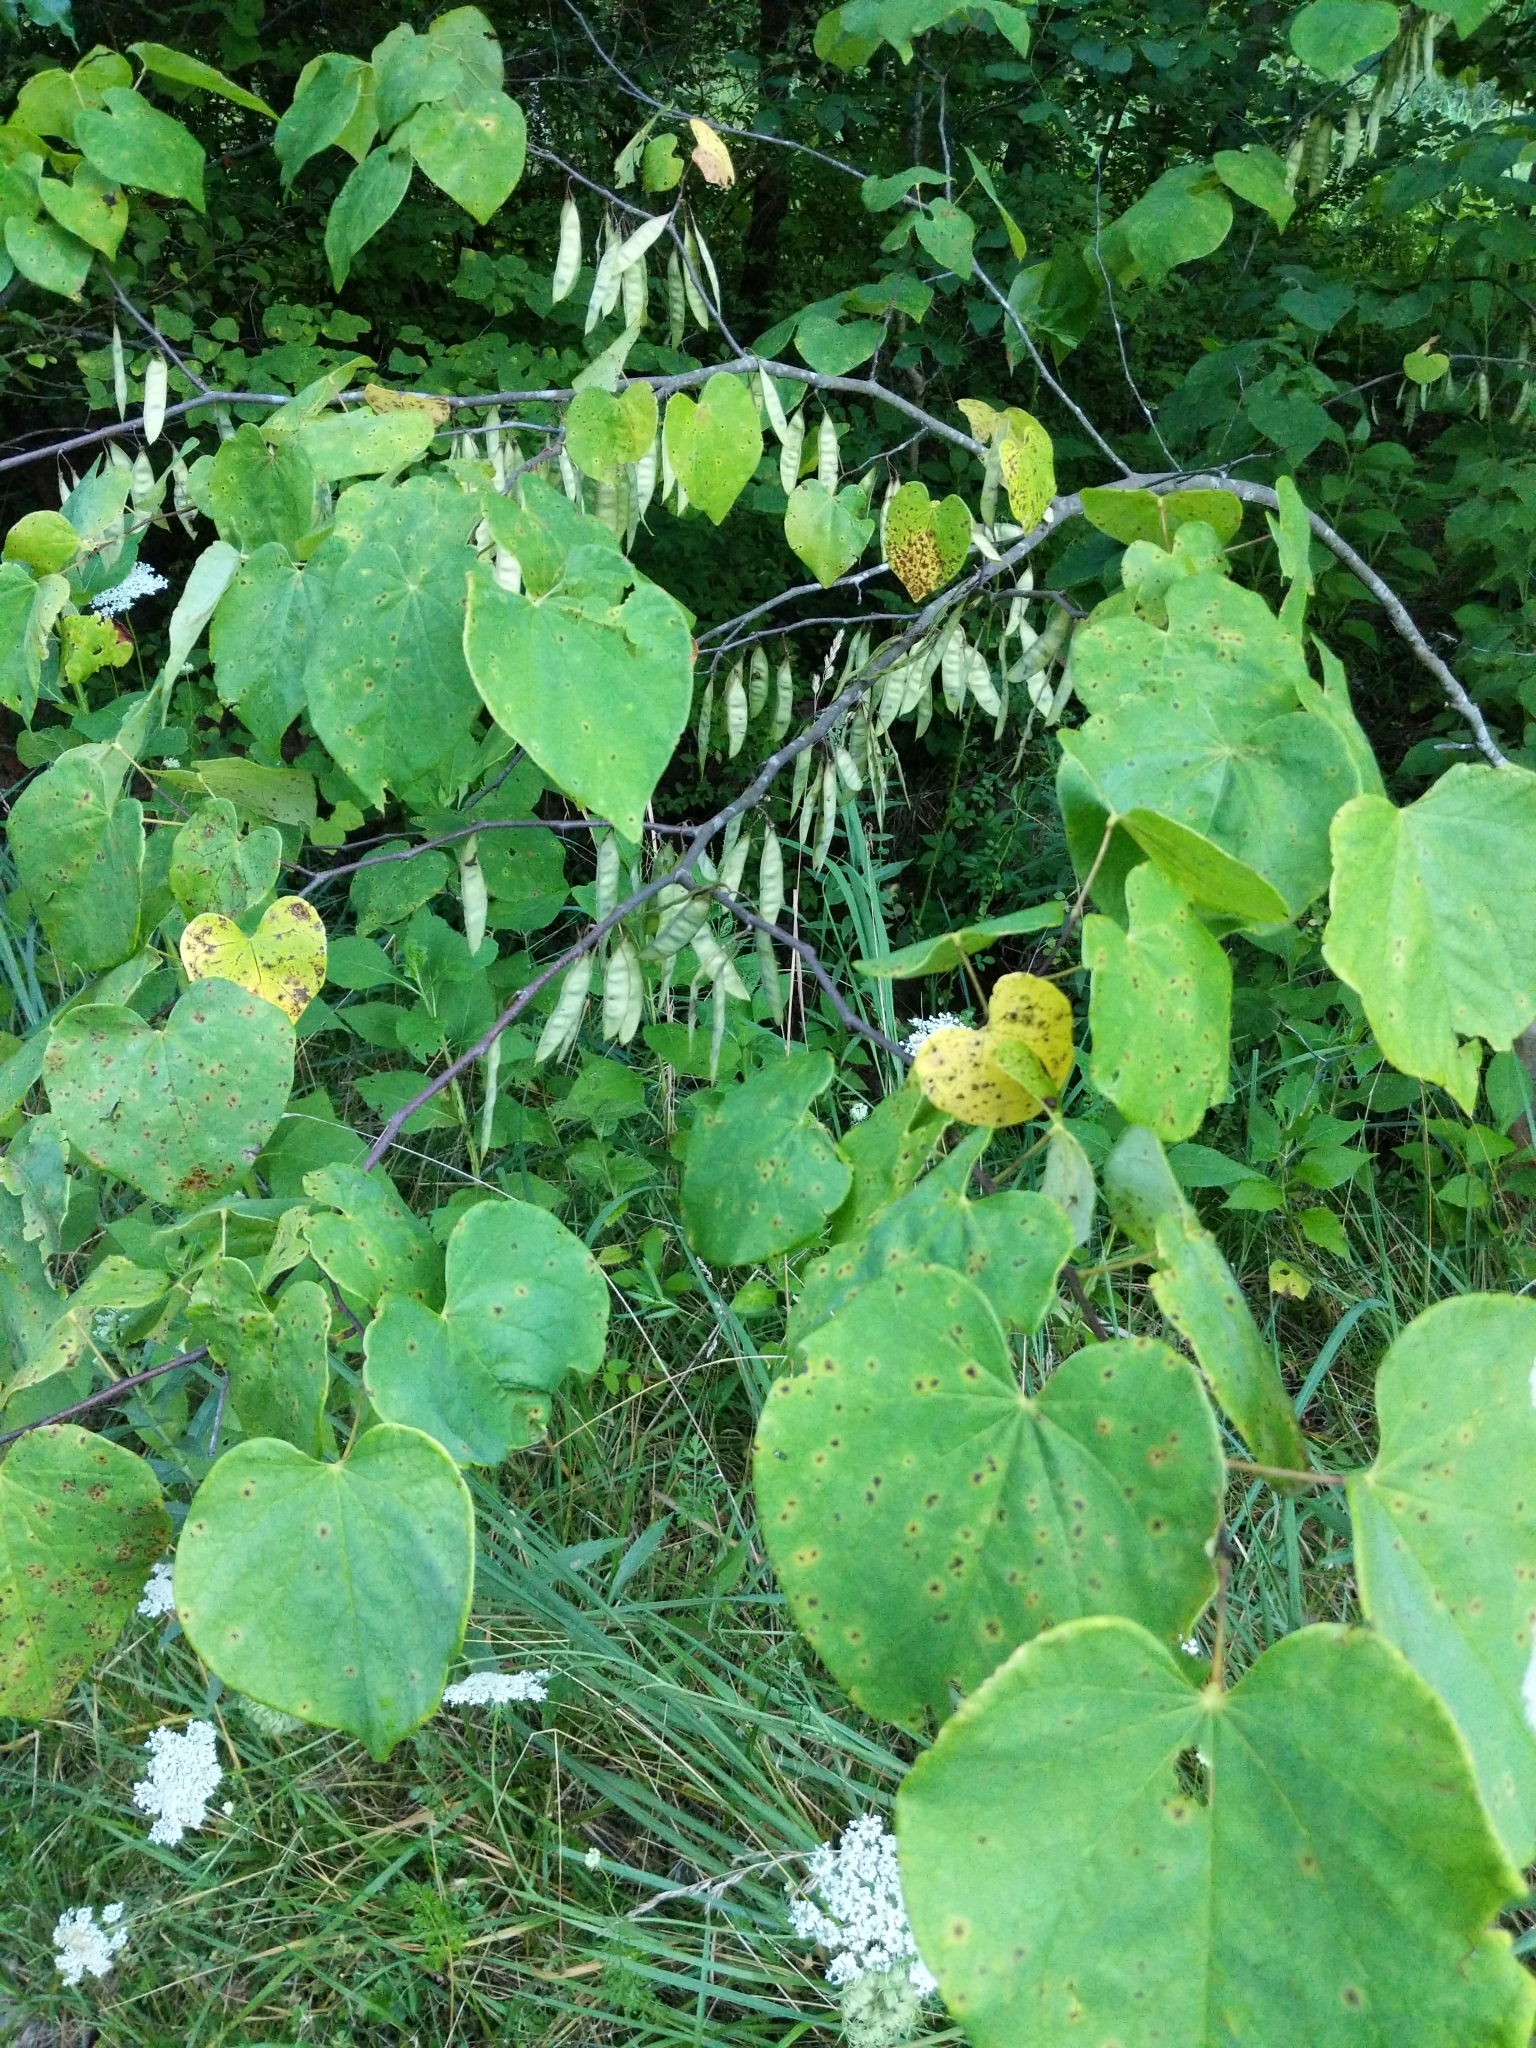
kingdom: Plantae
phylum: Tracheophyta
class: Magnoliopsida
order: Fabales
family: Fabaceae
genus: Cercis
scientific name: Cercis canadensis
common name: Eastern redbud
